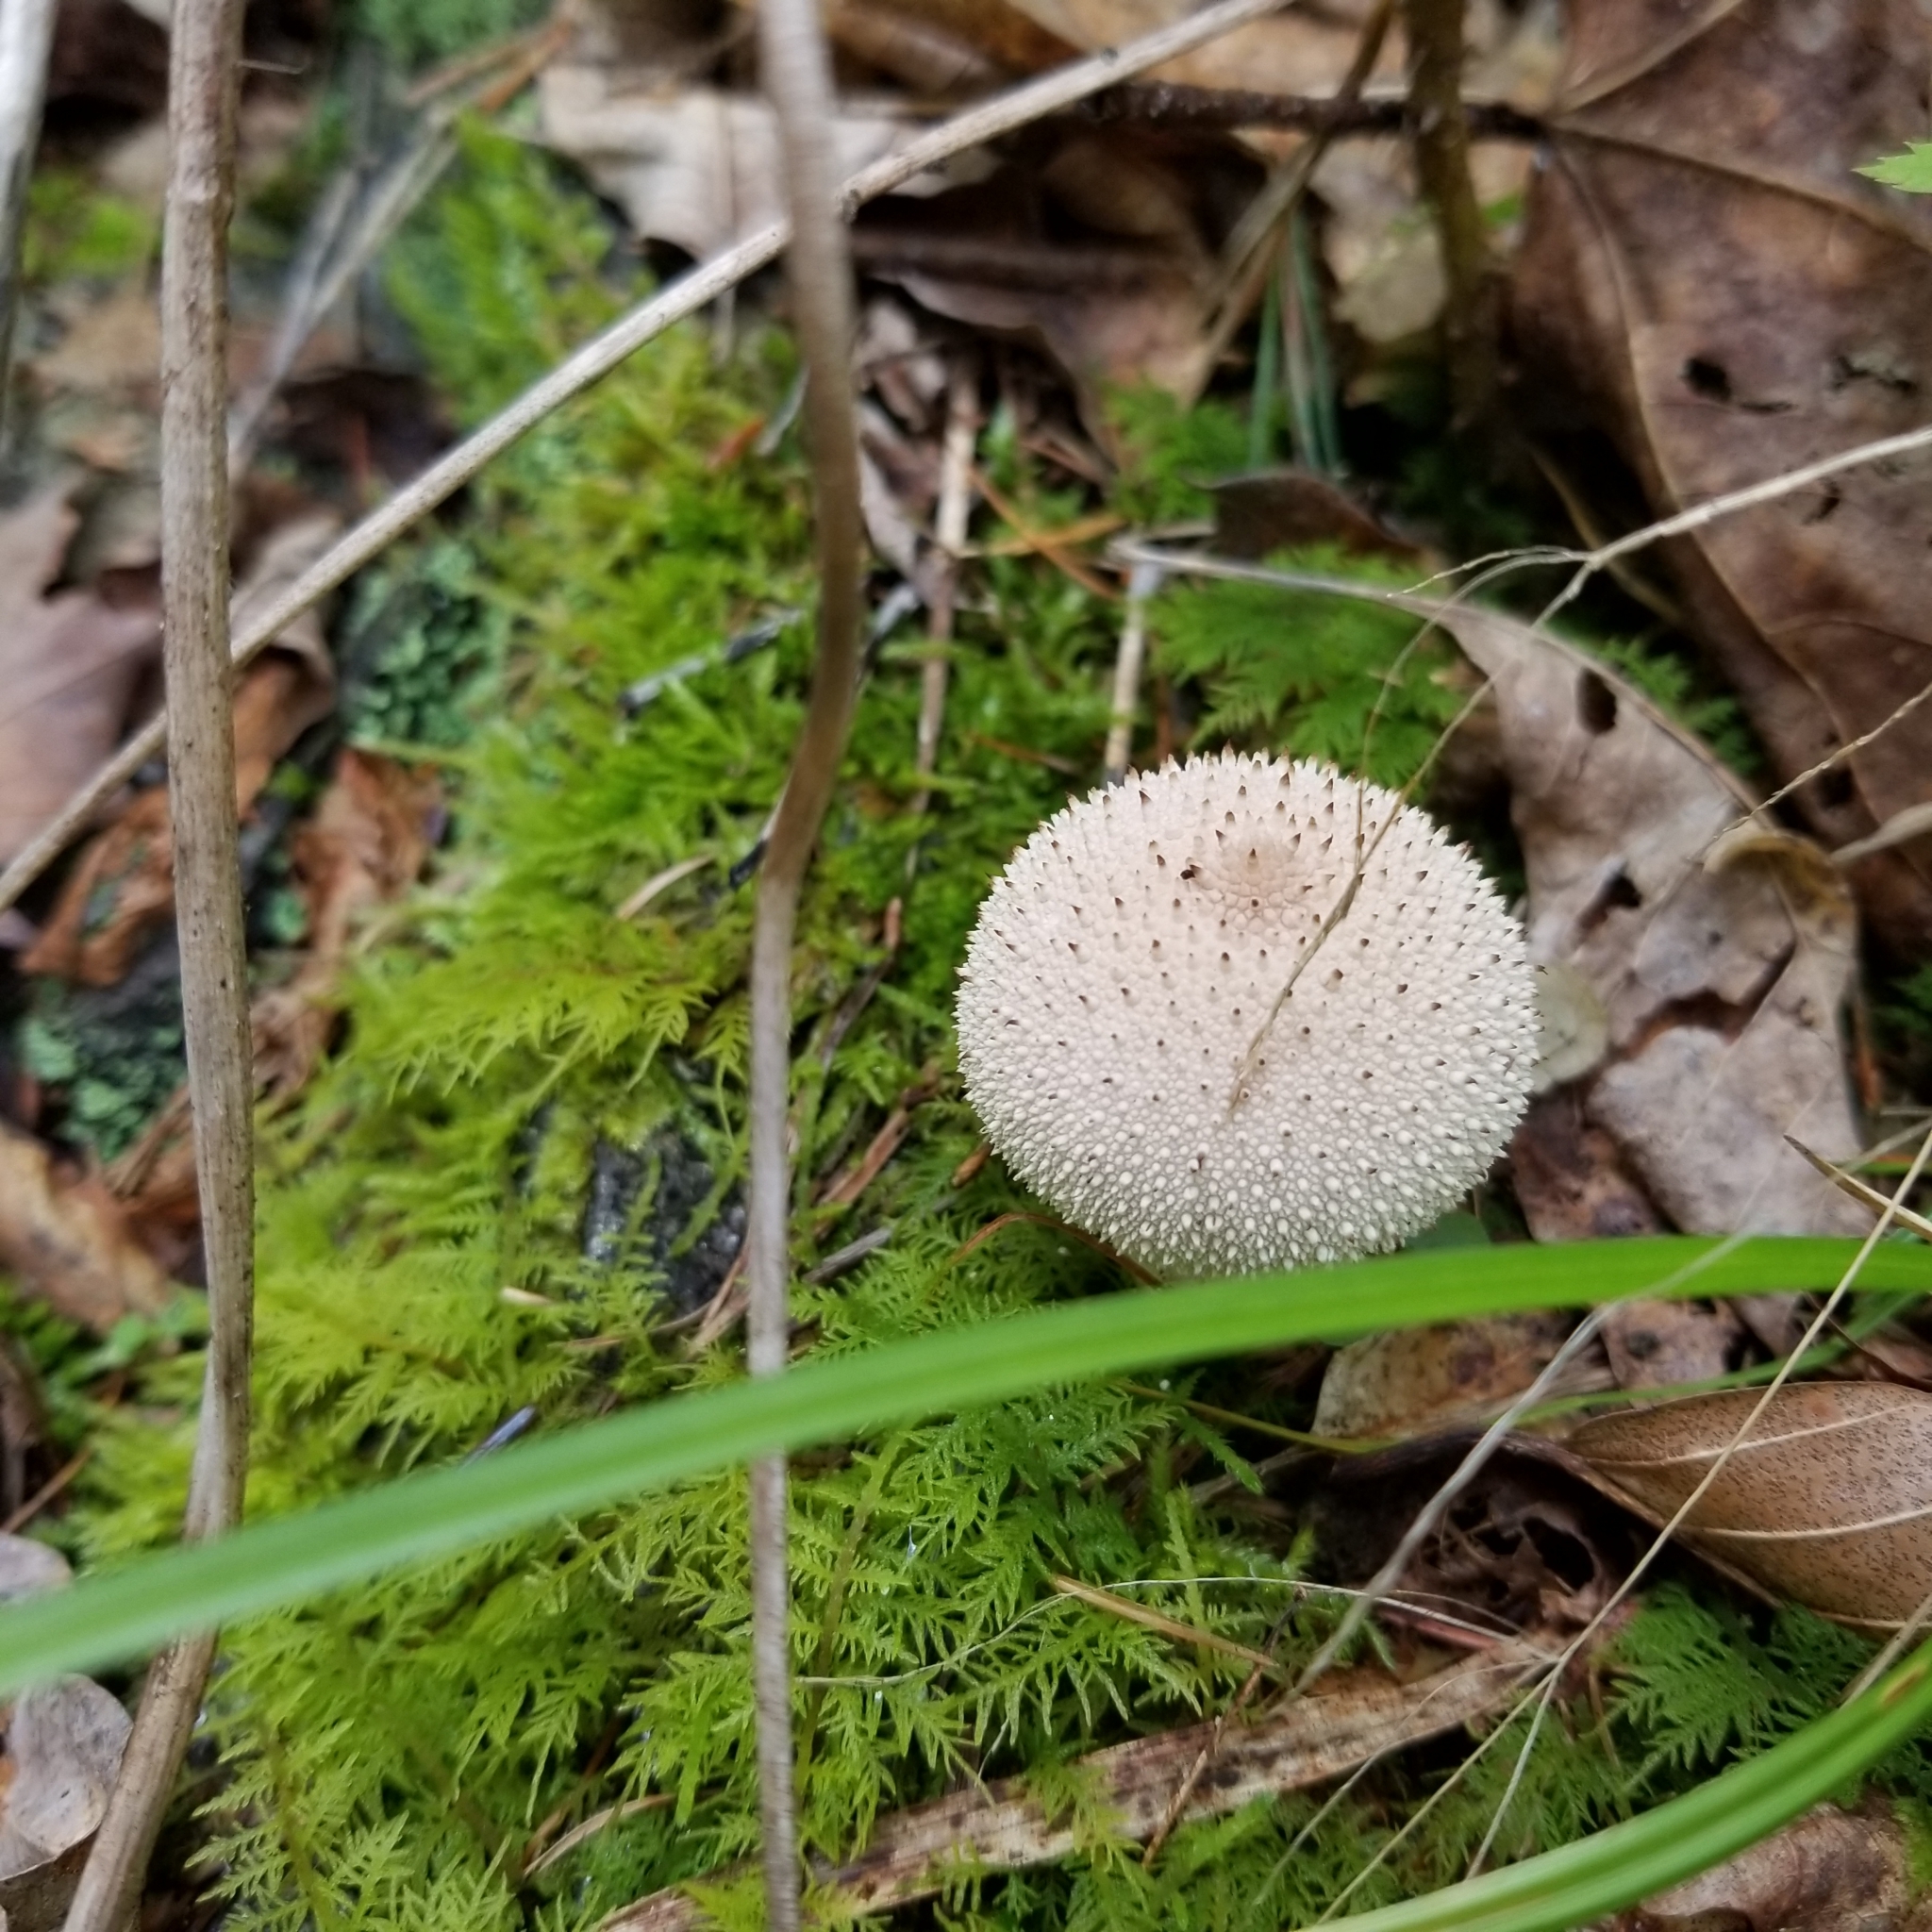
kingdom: Fungi
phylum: Basidiomycota
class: Agaricomycetes
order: Agaricales
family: Lycoperdaceae
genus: Lycoperdon
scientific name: Lycoperdon perlatum
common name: Common puffball
